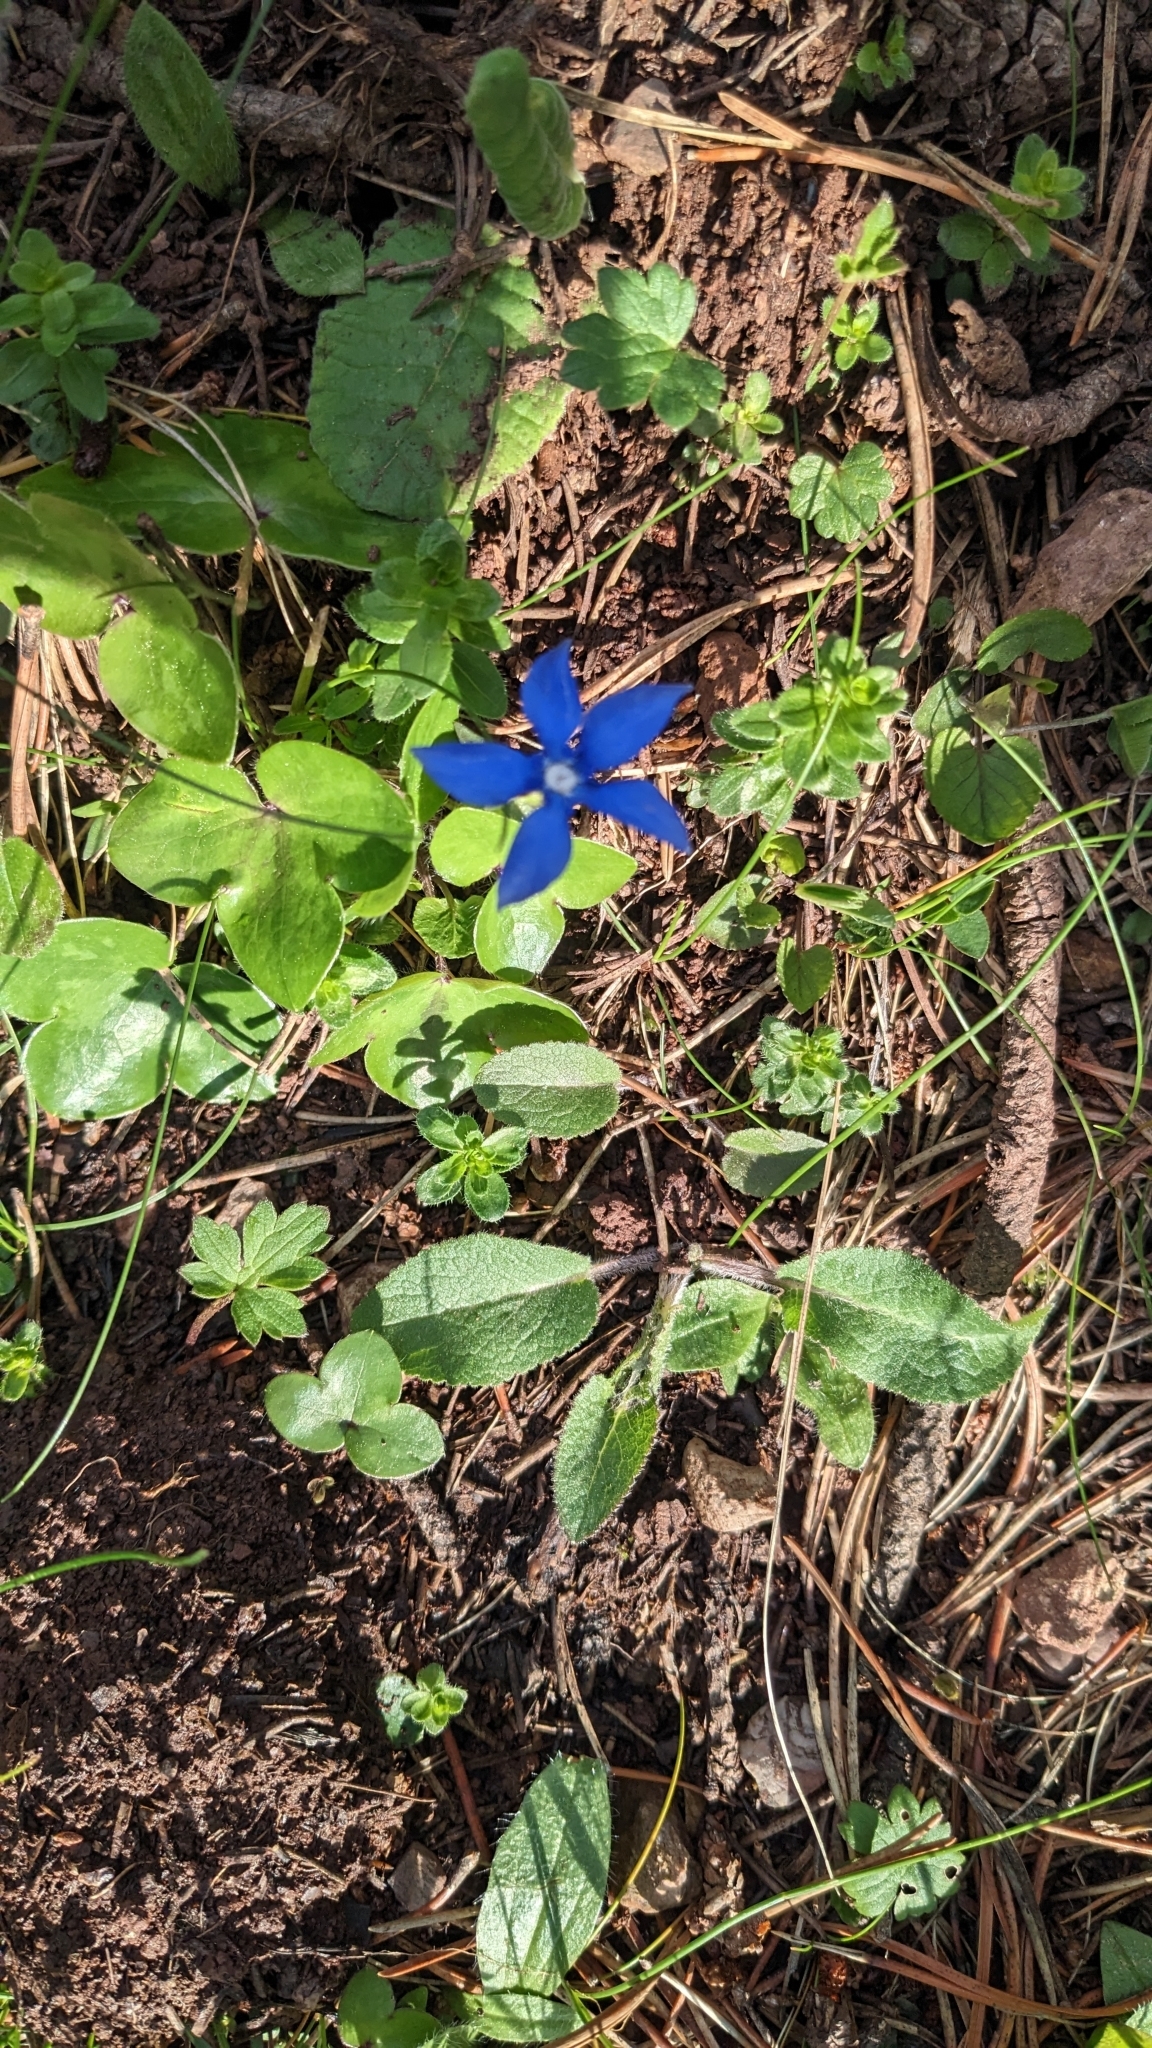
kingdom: Plantae
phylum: Tracheophyta
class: Magnoliopsida
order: Gentianales
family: Gentianaceae
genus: Gentiana
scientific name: Gentiana
